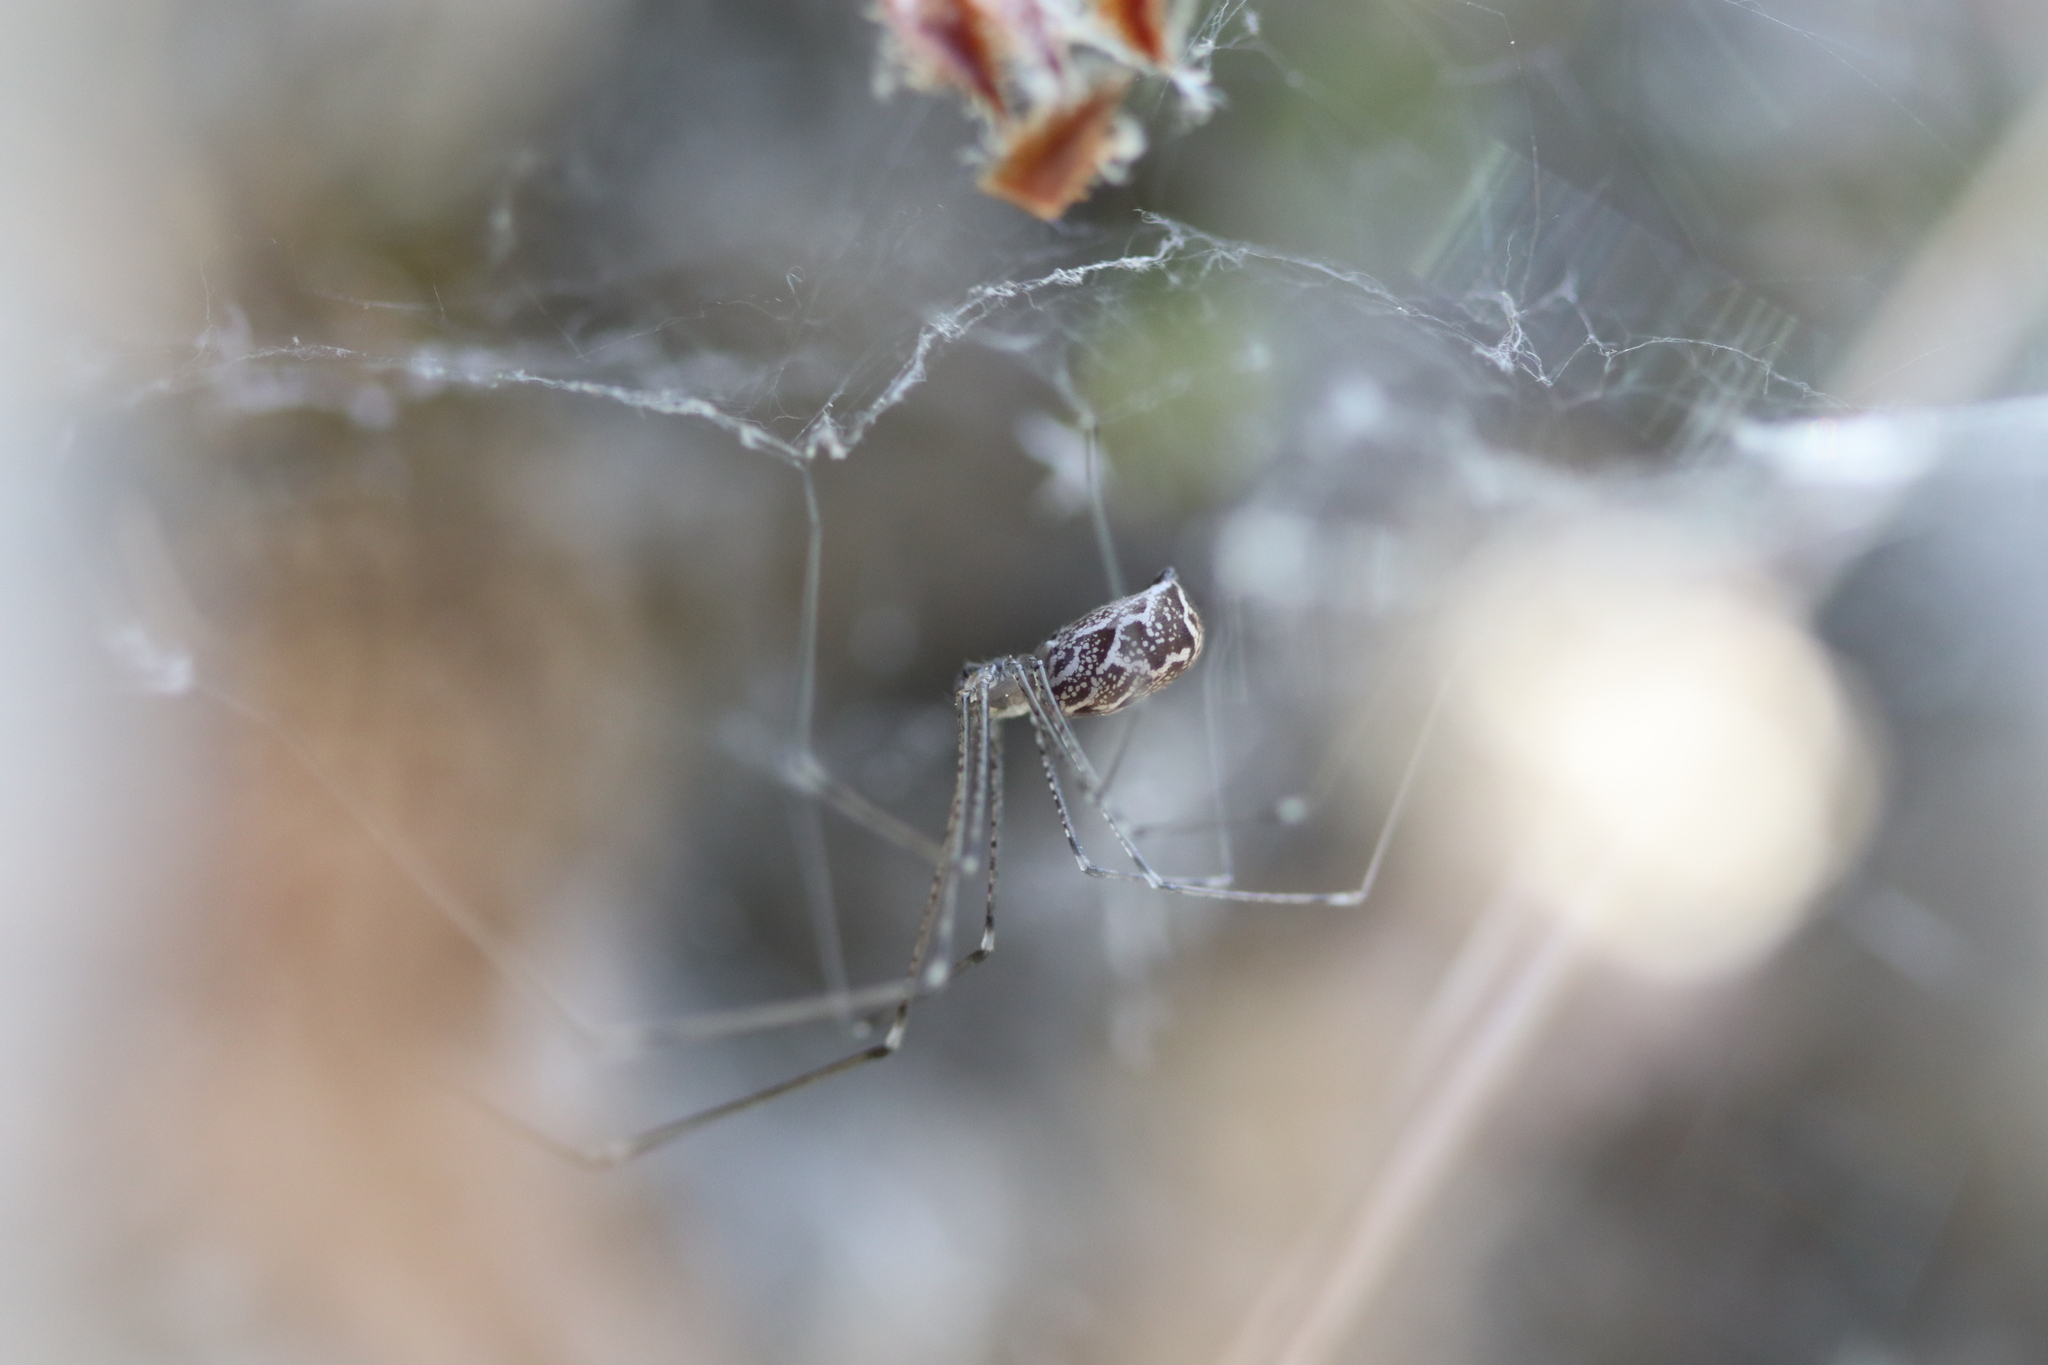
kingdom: Animalia
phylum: Arthropoda
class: Arachnida
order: Araneae
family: Pholcidae
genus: Holocnemus
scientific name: Holocnemus pluchei
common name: Marbled cellar spider
